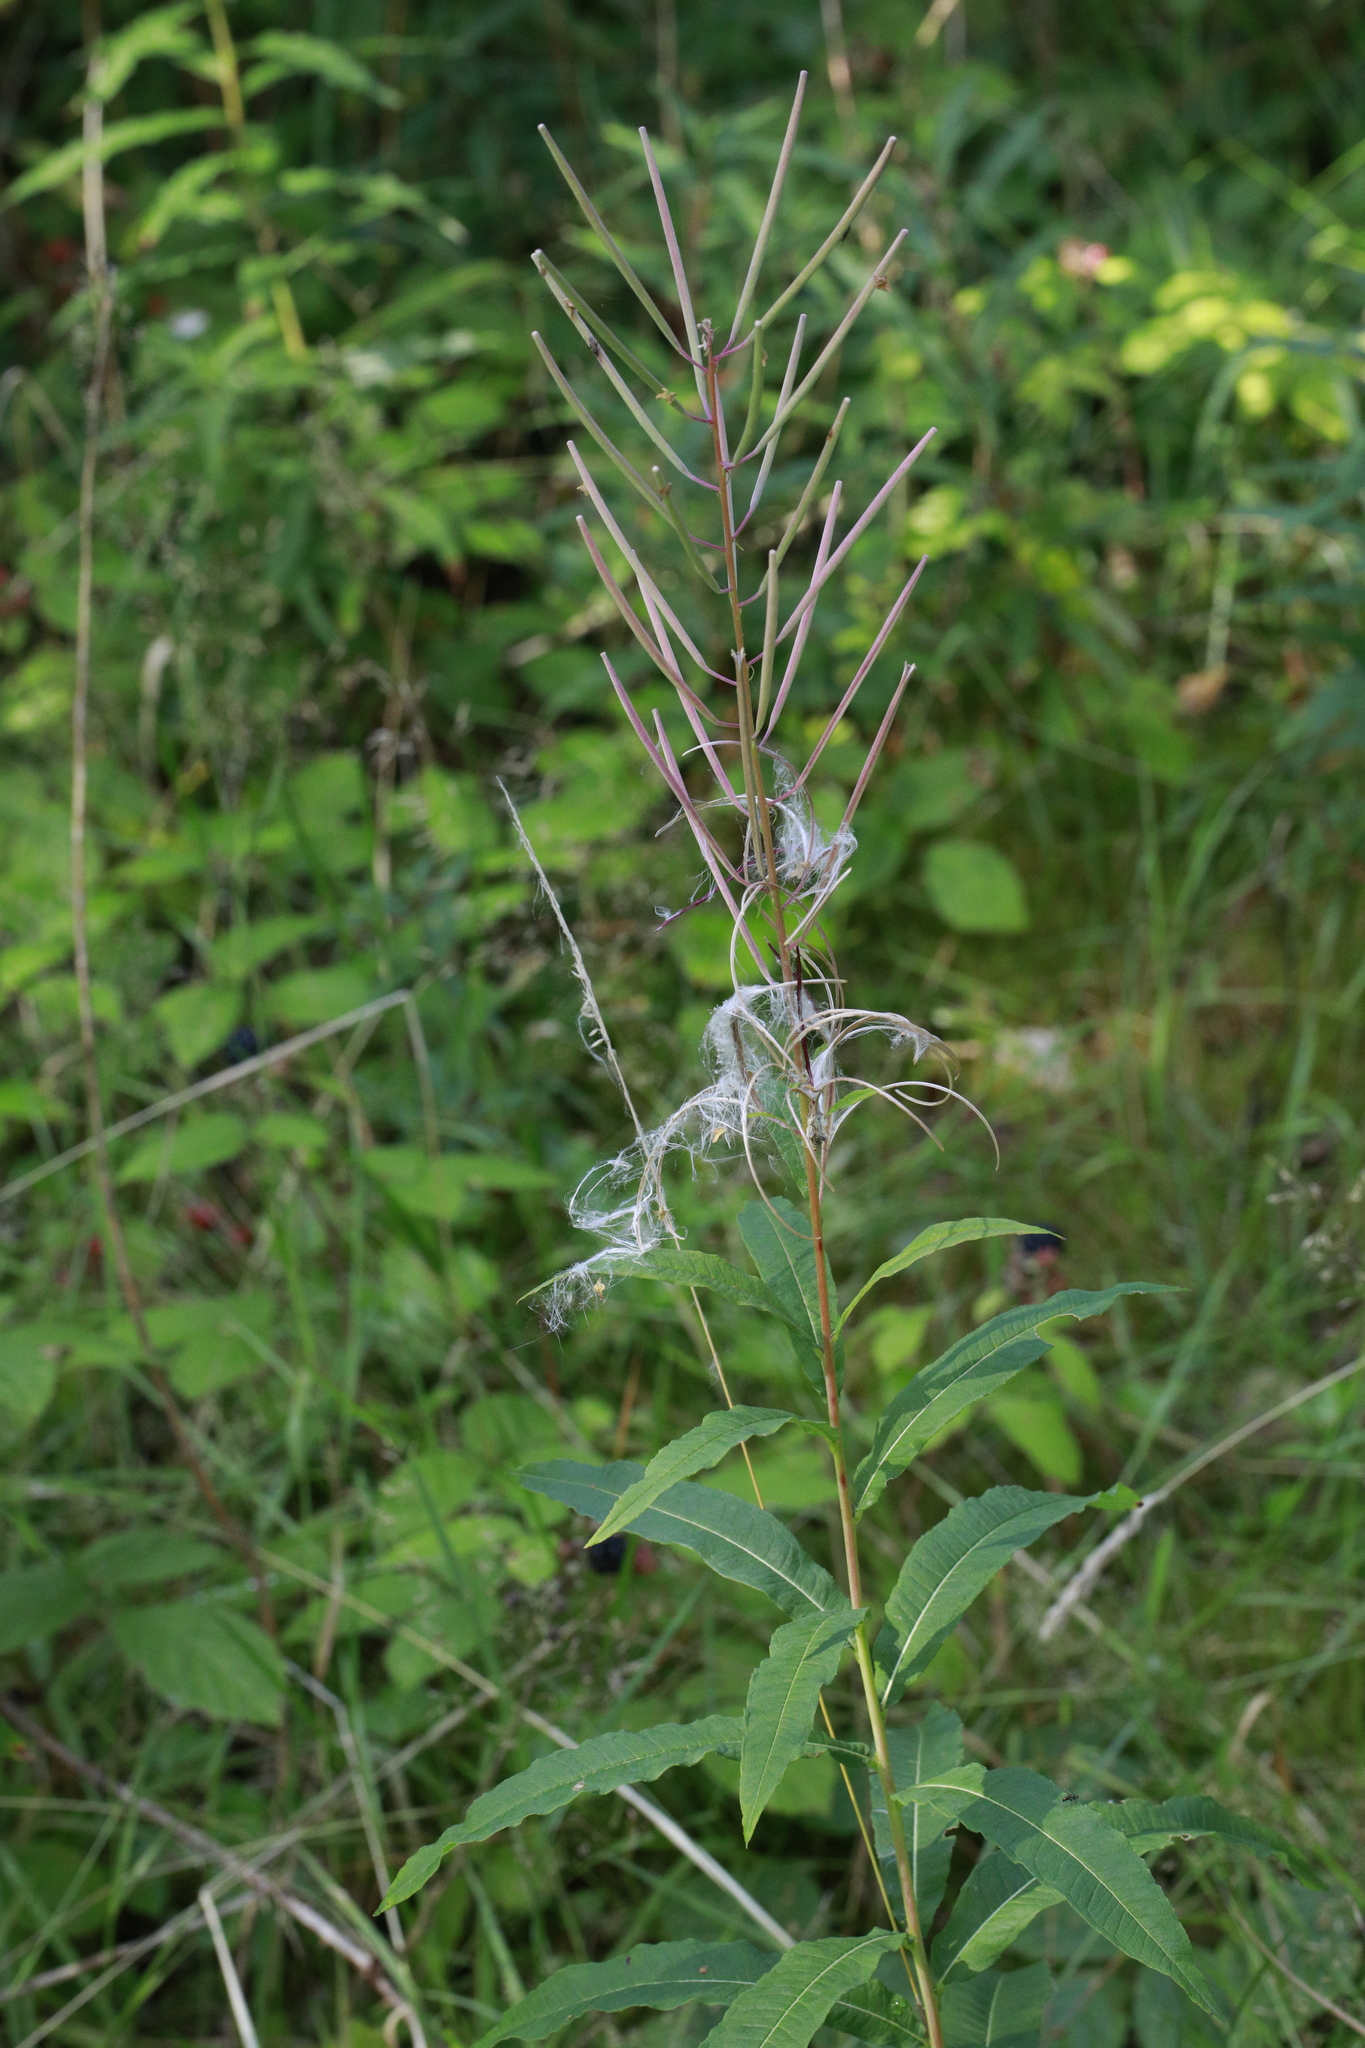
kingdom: Plantae
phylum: Tracheophyta
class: Magnoliopsida
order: Myrtales
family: Onagraceae
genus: Chamaenerion
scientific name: Chamaenerion angustifolium
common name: Fireweed
